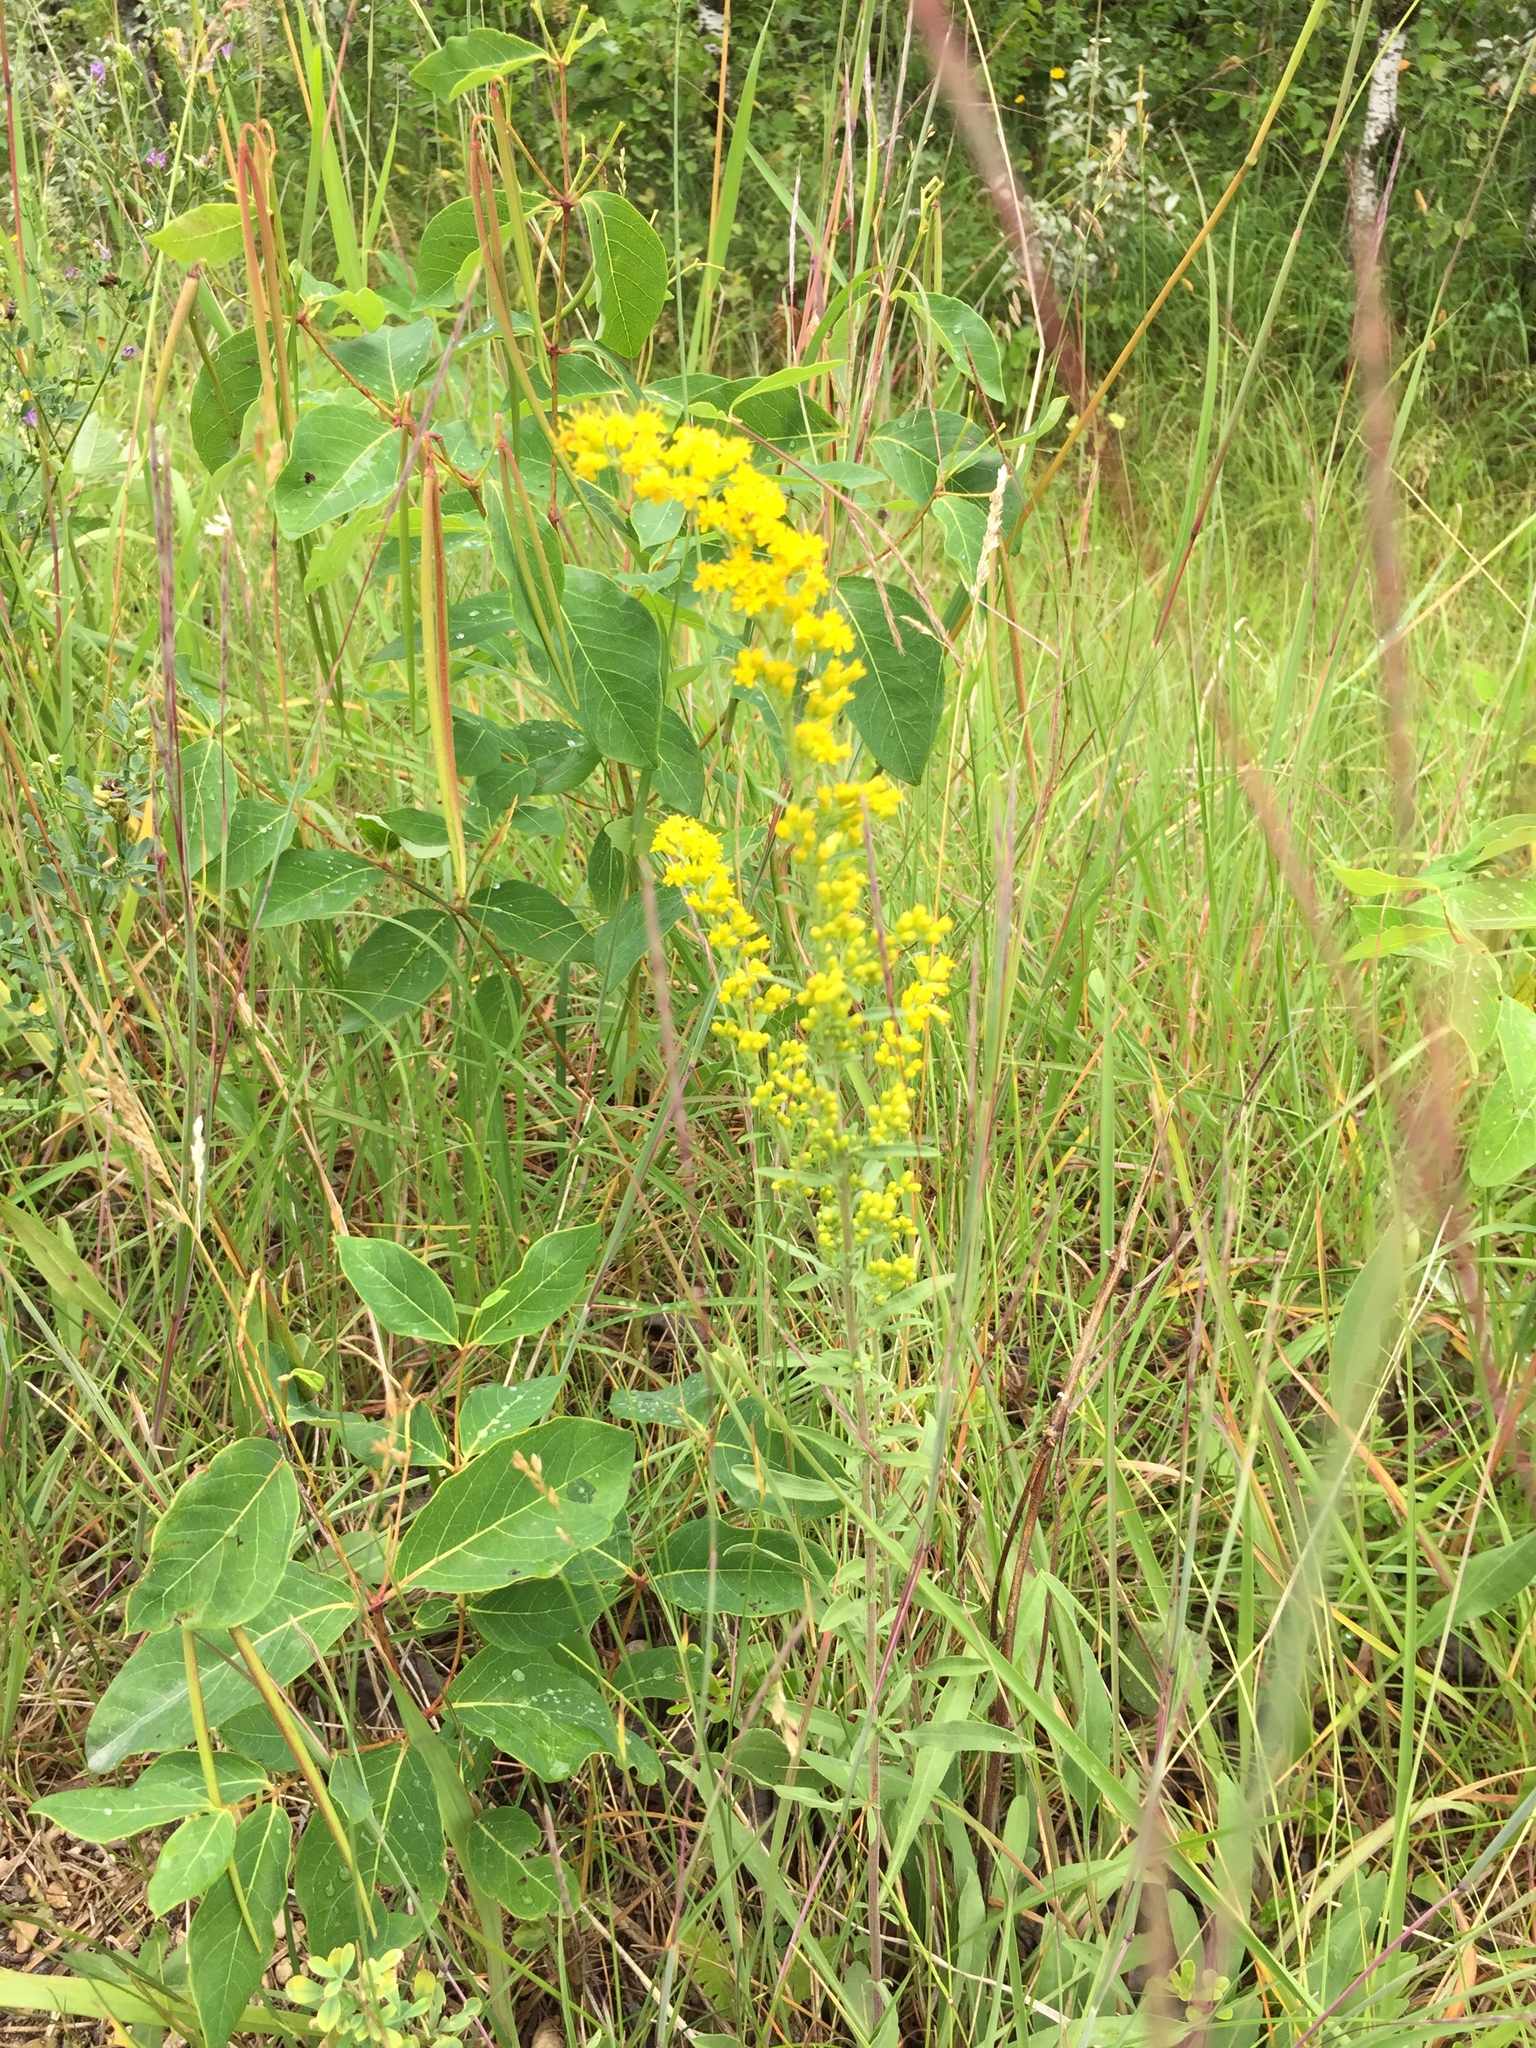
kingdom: Plantae
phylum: Tracheophyta
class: Magnoliopsida
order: Asterales
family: Asteraceae
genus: Solidago
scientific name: Solidago nemoralis
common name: Grey goldenrod
